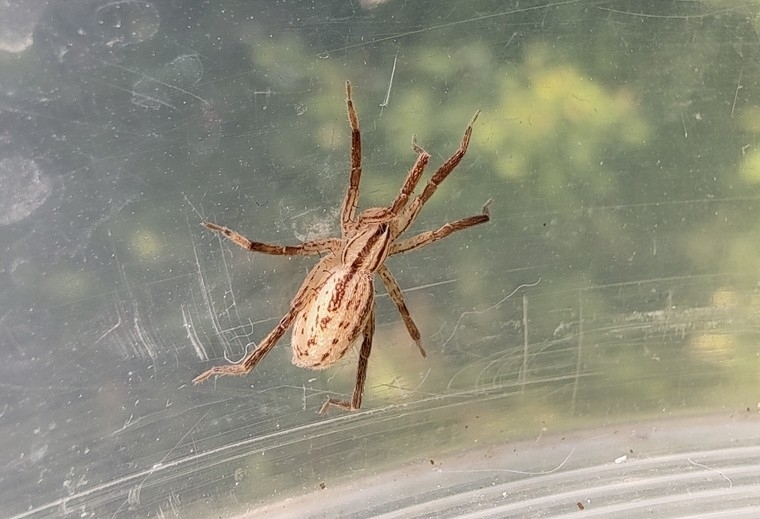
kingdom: Animalia
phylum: Arthropoda
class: Arachnida
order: Araneae
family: Miturgidae
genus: Zora
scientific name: Zora spinimana
